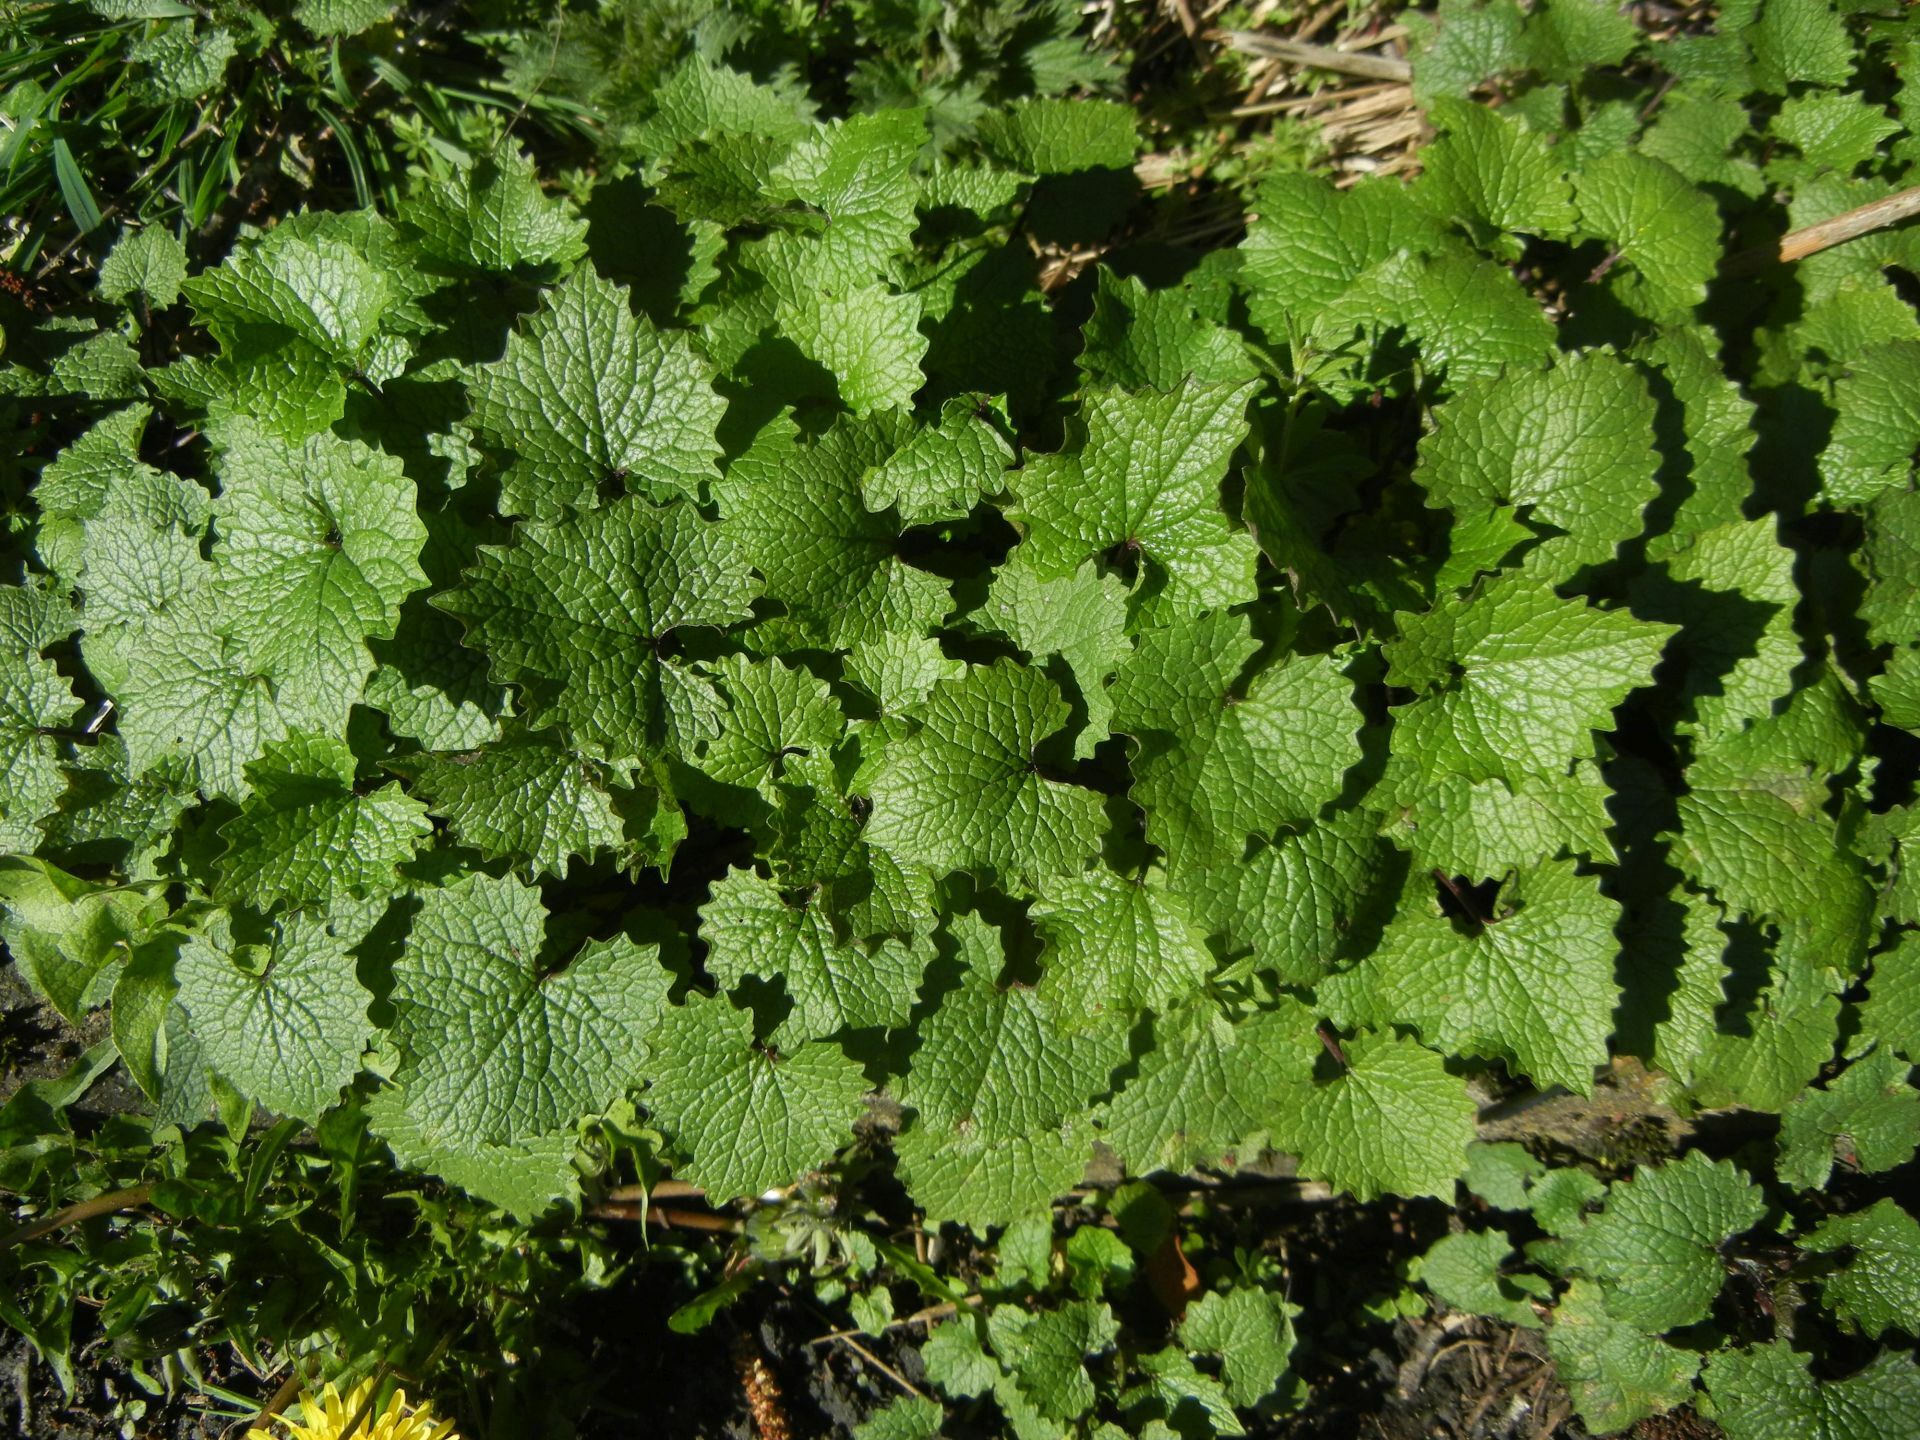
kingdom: Plantae
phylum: Tracheophyta
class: Magnoliopsida
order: Brassicales
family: Brassicaceae
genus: Alliaria
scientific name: Alliaria petiolata
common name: Garlic mustard
